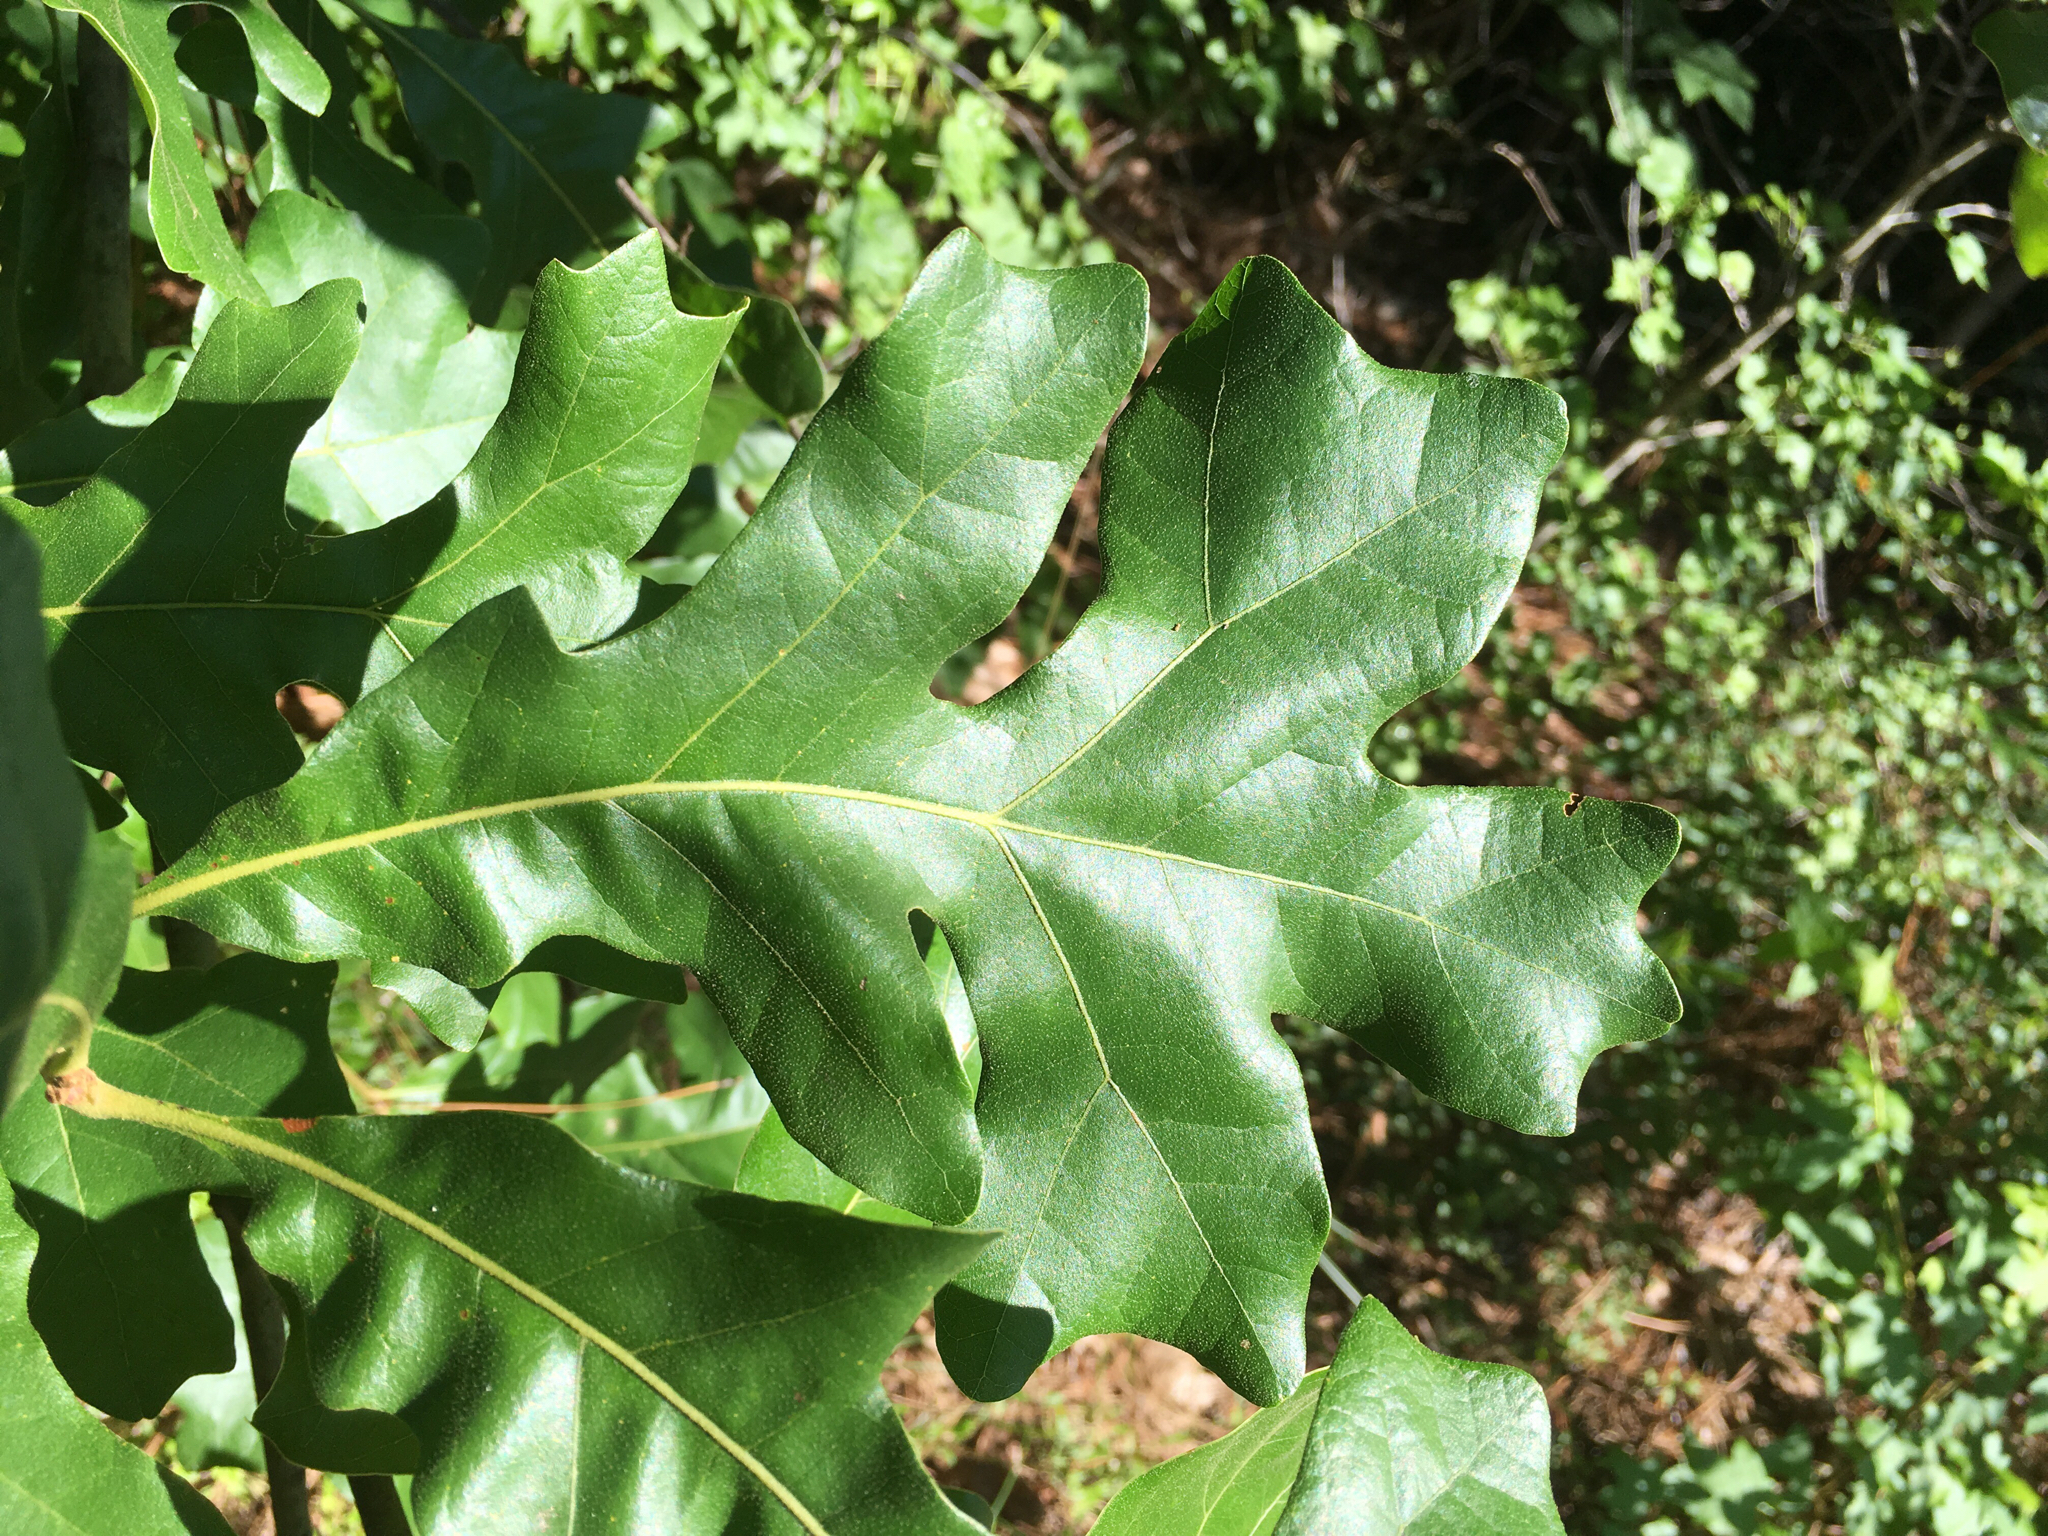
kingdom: Plantae
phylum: Tracheophyta
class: Magnoliopsida
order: Fagales
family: Fagaceae
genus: Quercus
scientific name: Quercus stellata
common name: Post oak
